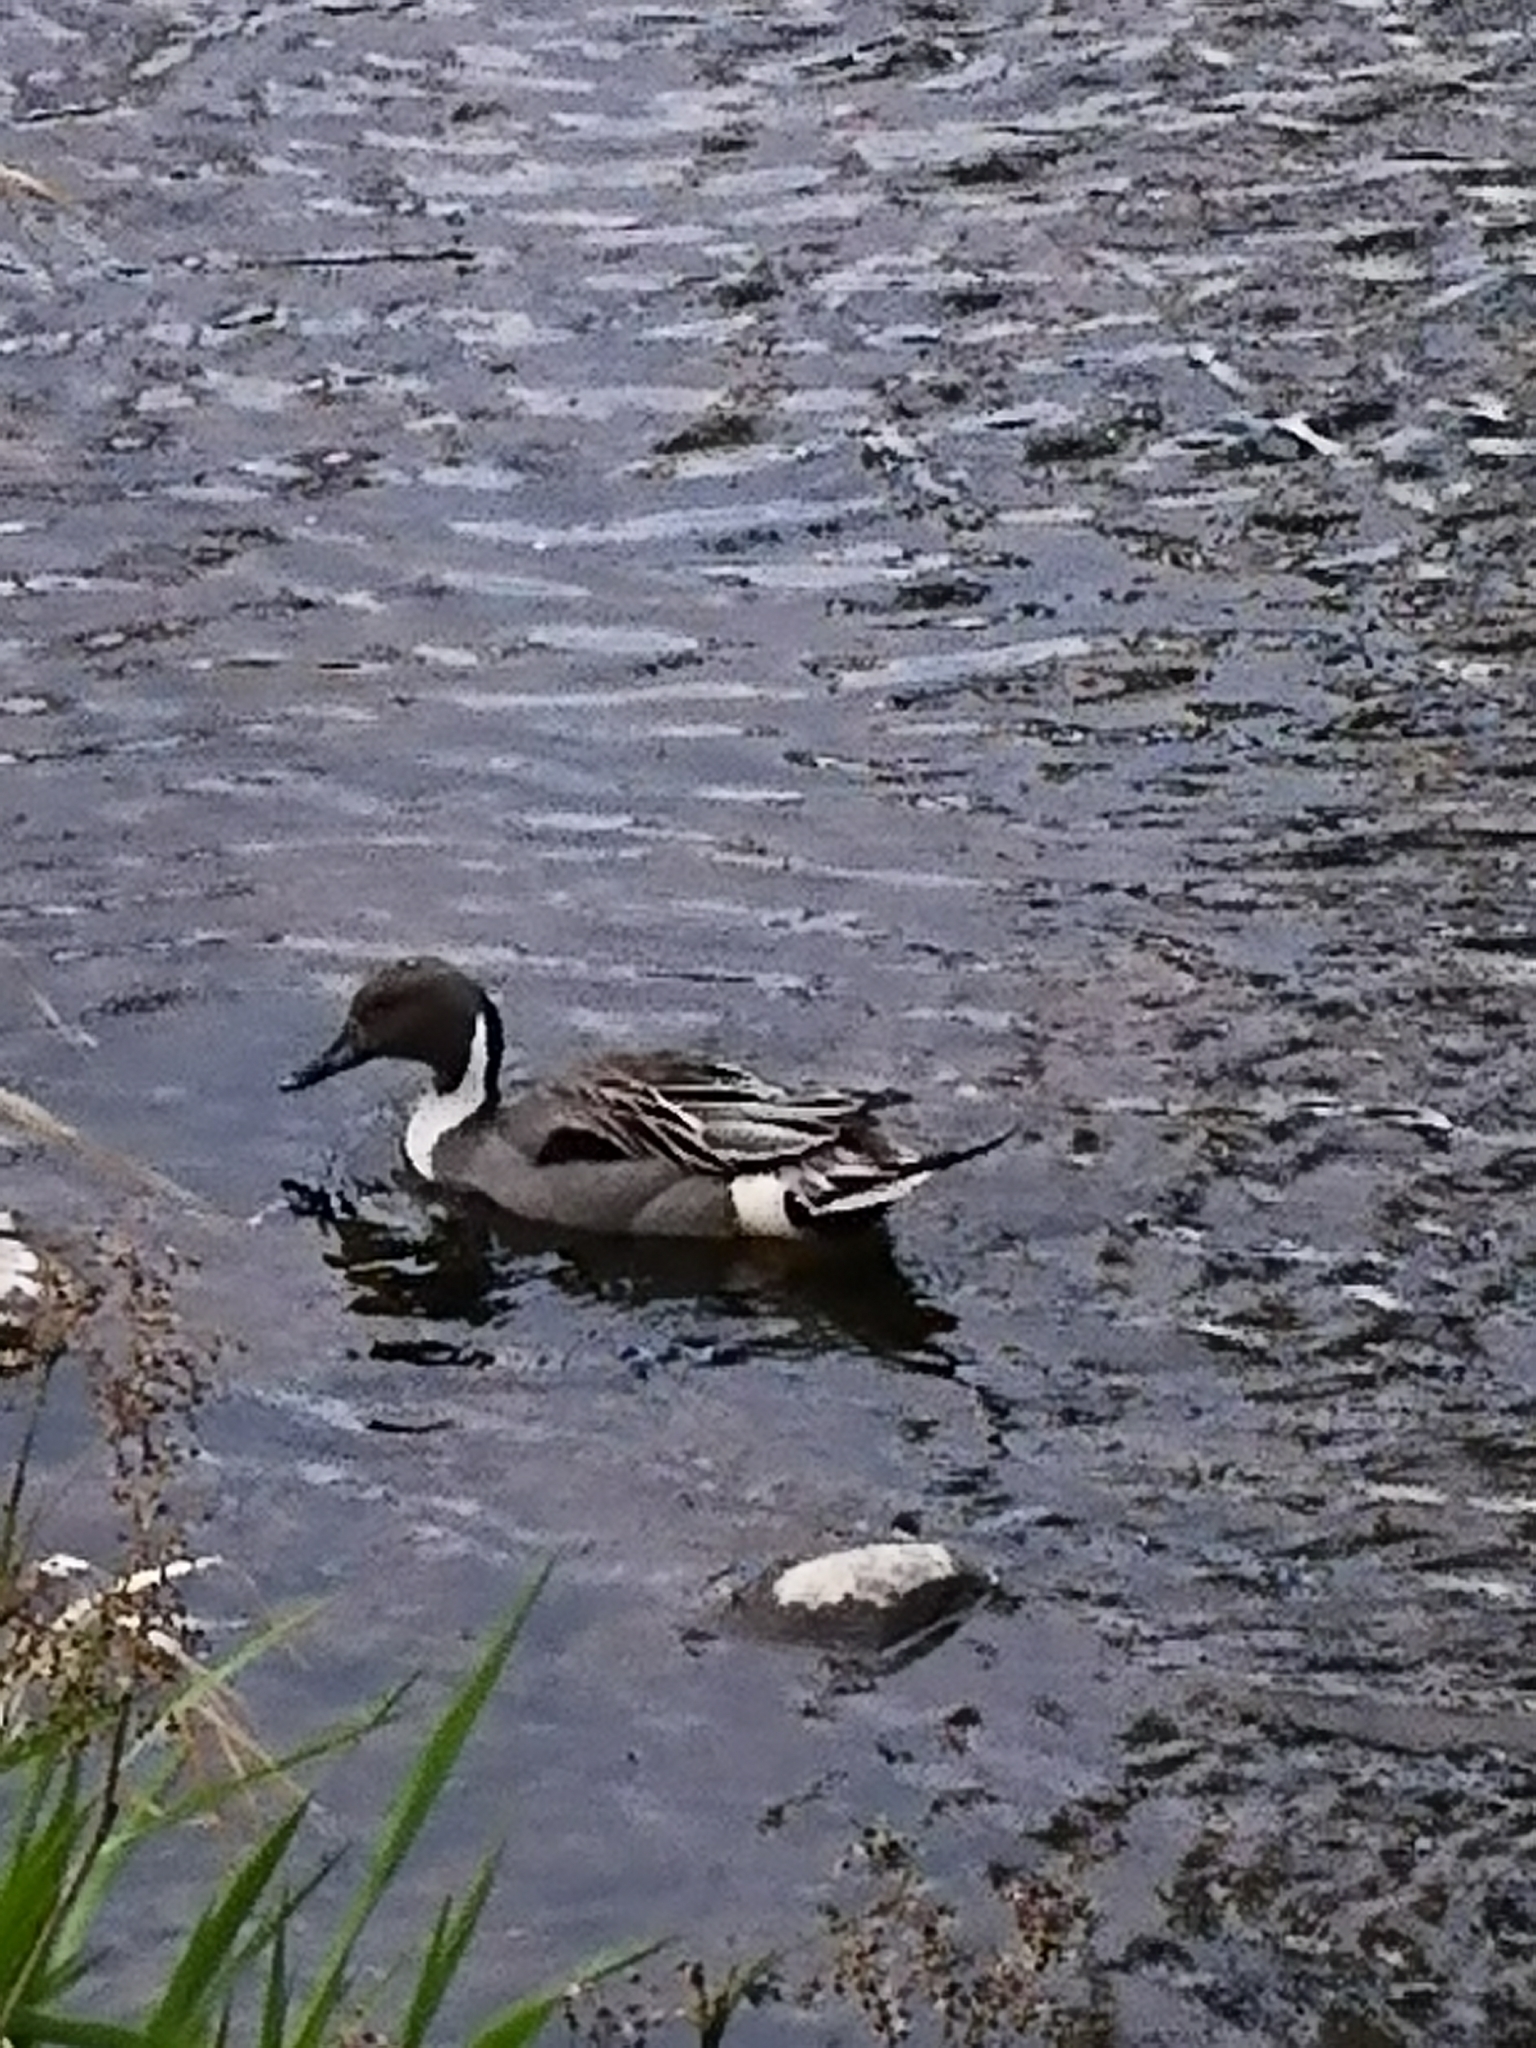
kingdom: Animalia
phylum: Chordata
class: Aves
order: Anseriformes
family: Anatidae
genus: Anas
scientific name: Anas acuta
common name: Northern pintail
